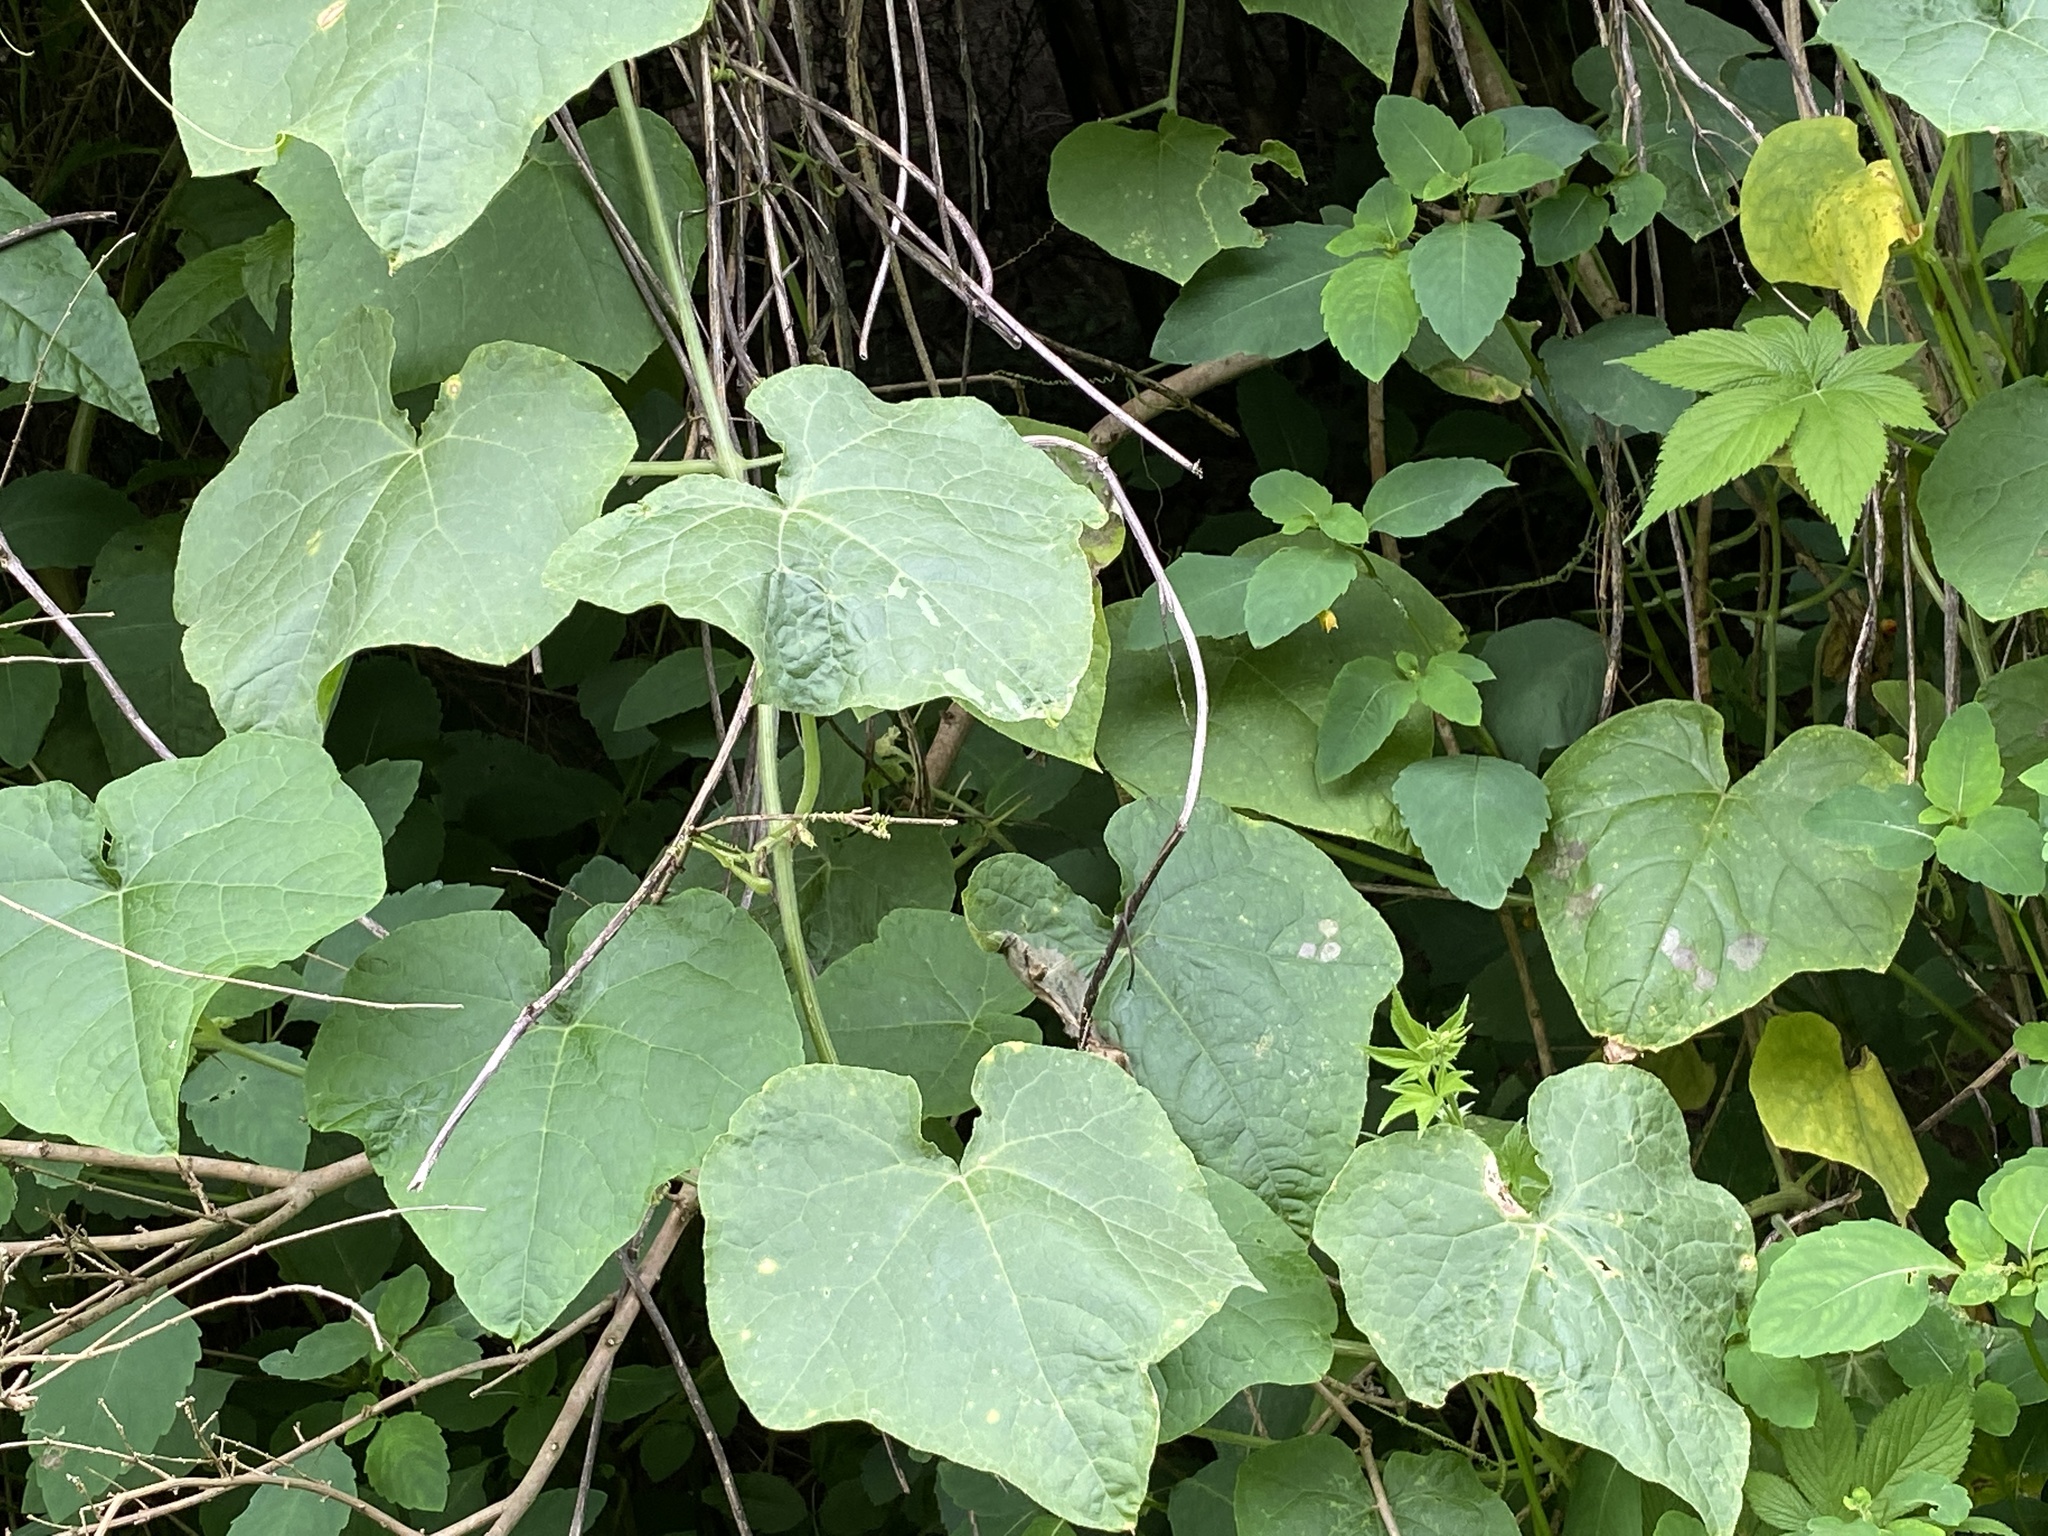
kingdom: Plantae
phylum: Tracheophyta
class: Magnoliopsida
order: Cucurbitales
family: Cucurbitaceae
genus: Sicyos
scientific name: Sicyos angulatus
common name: Angled burr cucumber
